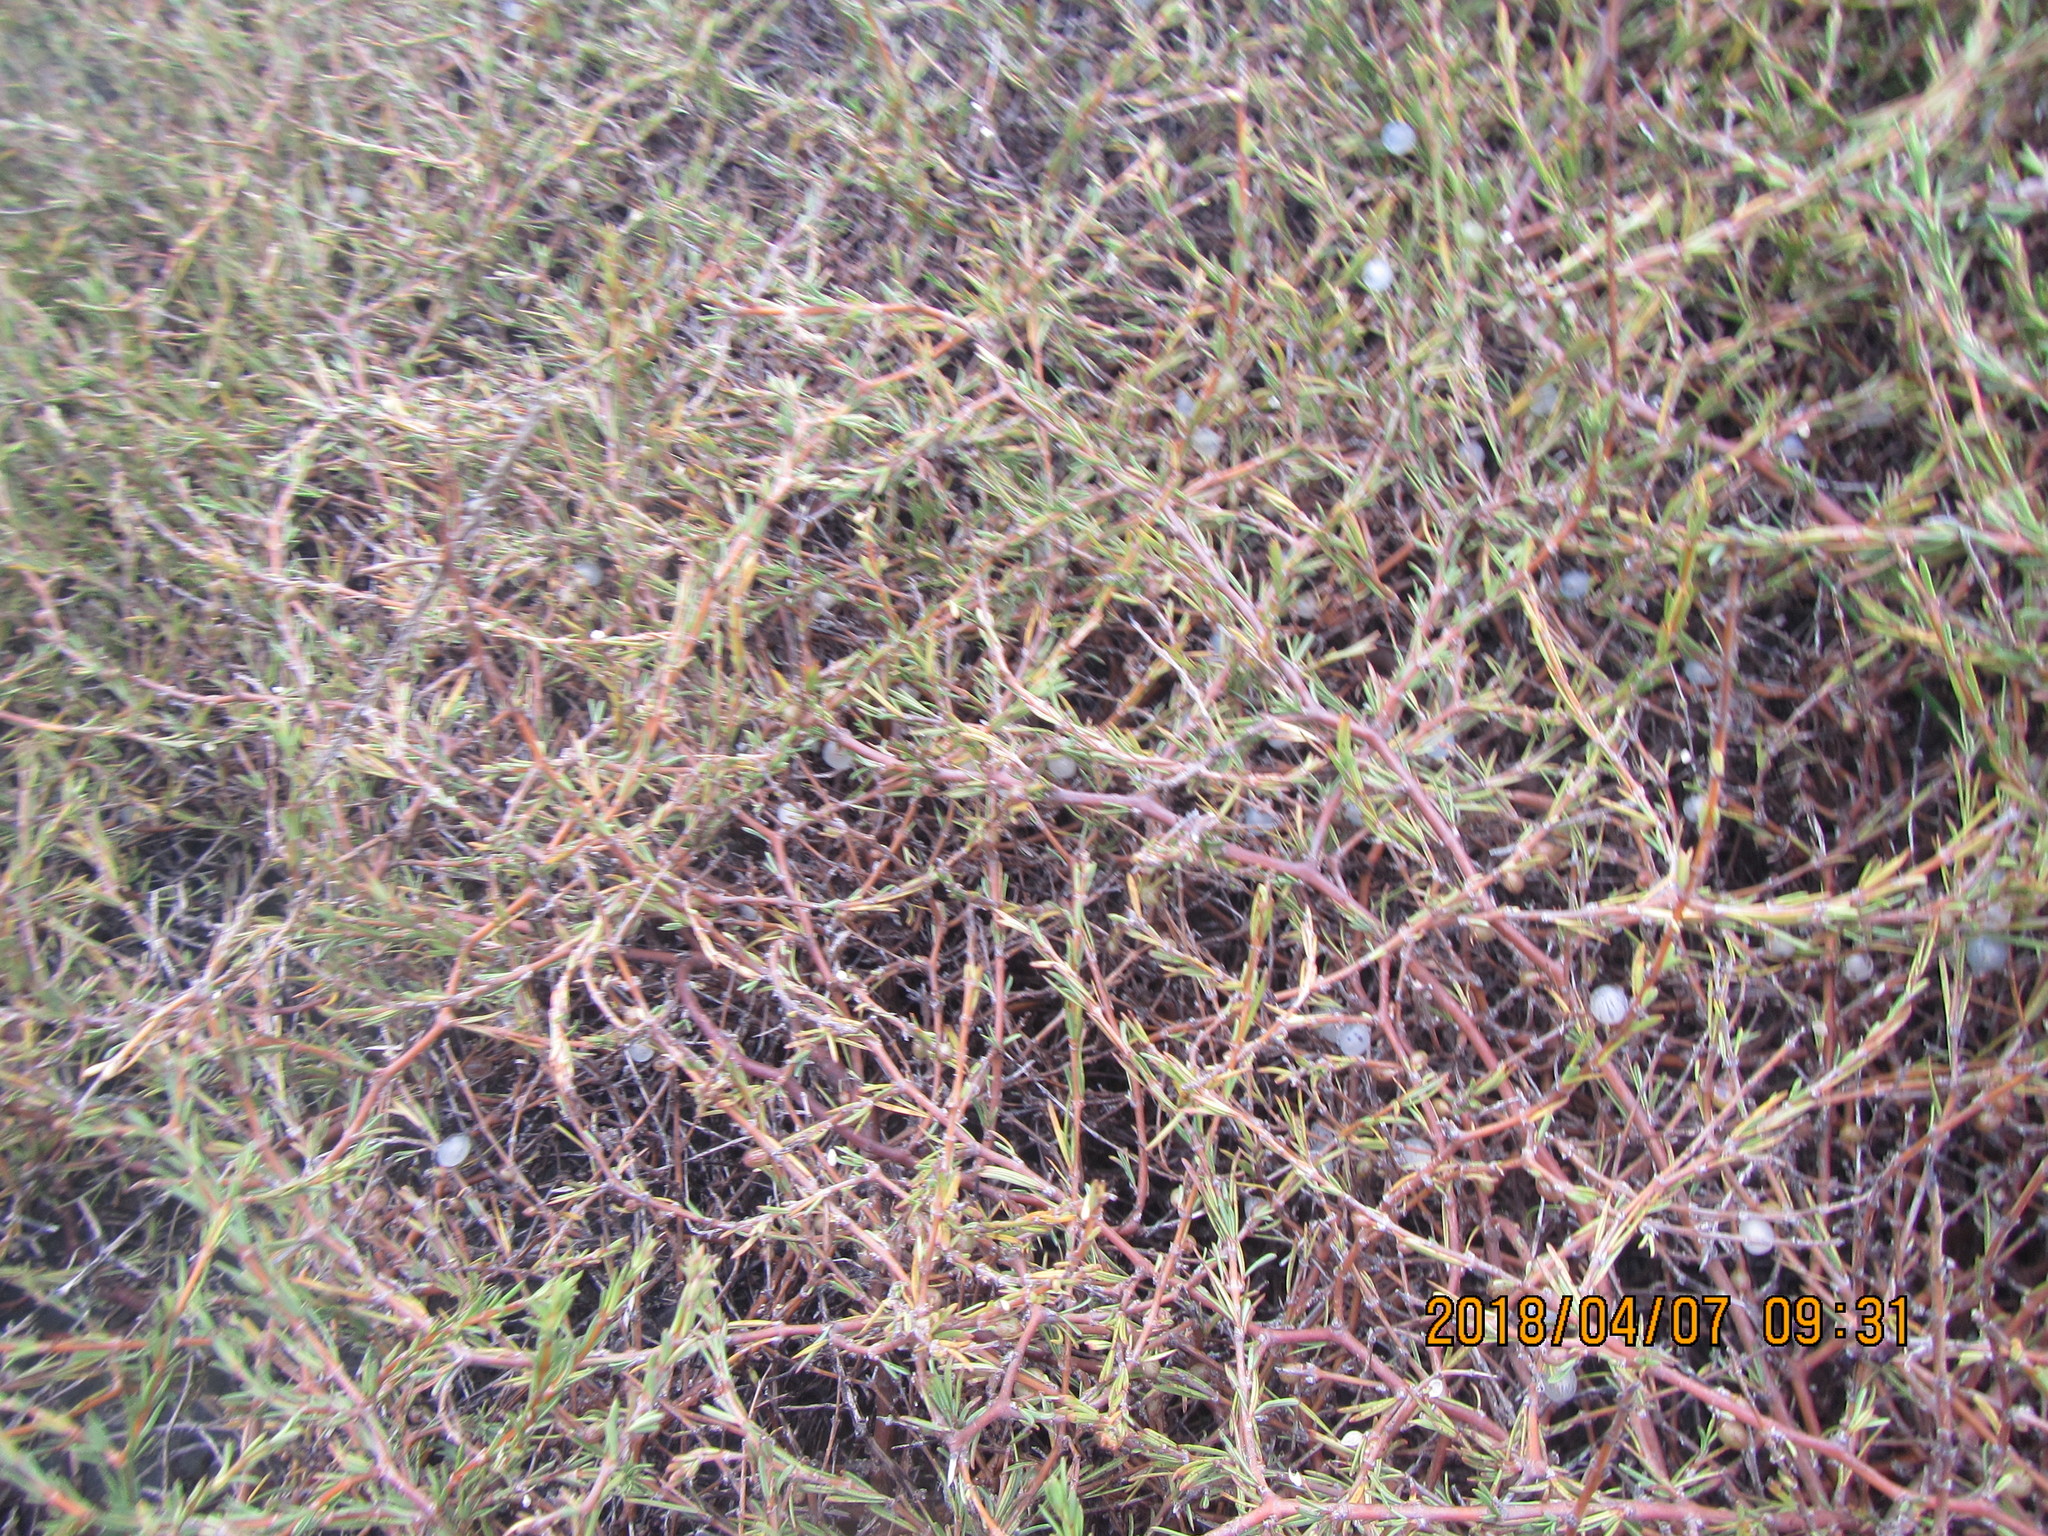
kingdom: Plantae
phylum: Tracheophyta
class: Magnoliopsida
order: Gentianales
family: Rubiaceae
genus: Coprosma
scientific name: Coprosma acerosa
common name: Sand coprosma
